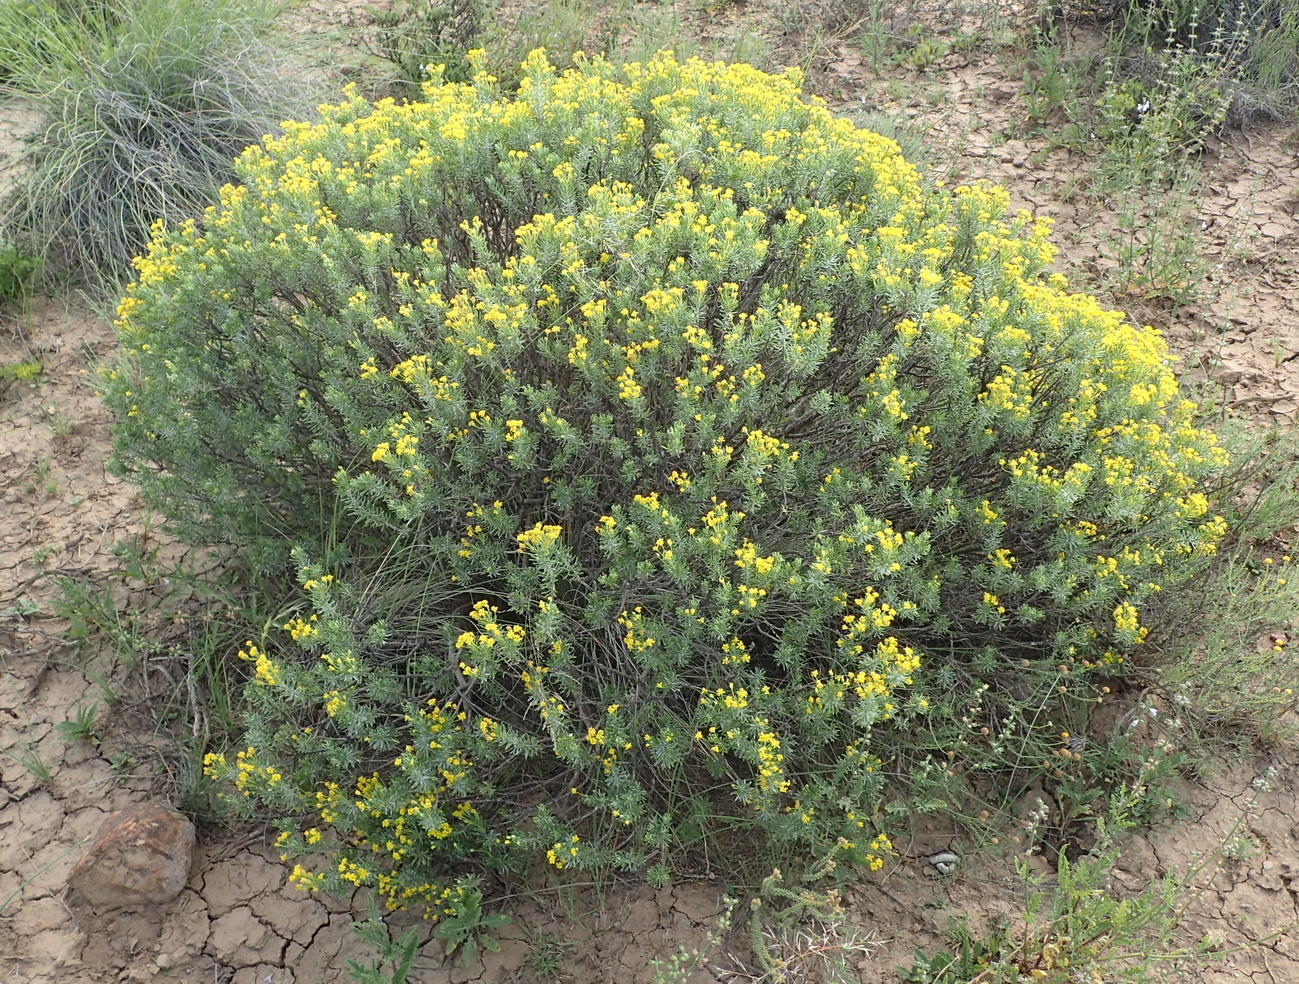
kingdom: Plantae
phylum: Tracheophyta
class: Magnoliopsida
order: Asterales
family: Asteraceae
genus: Euryops
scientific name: Euryops floribundus
